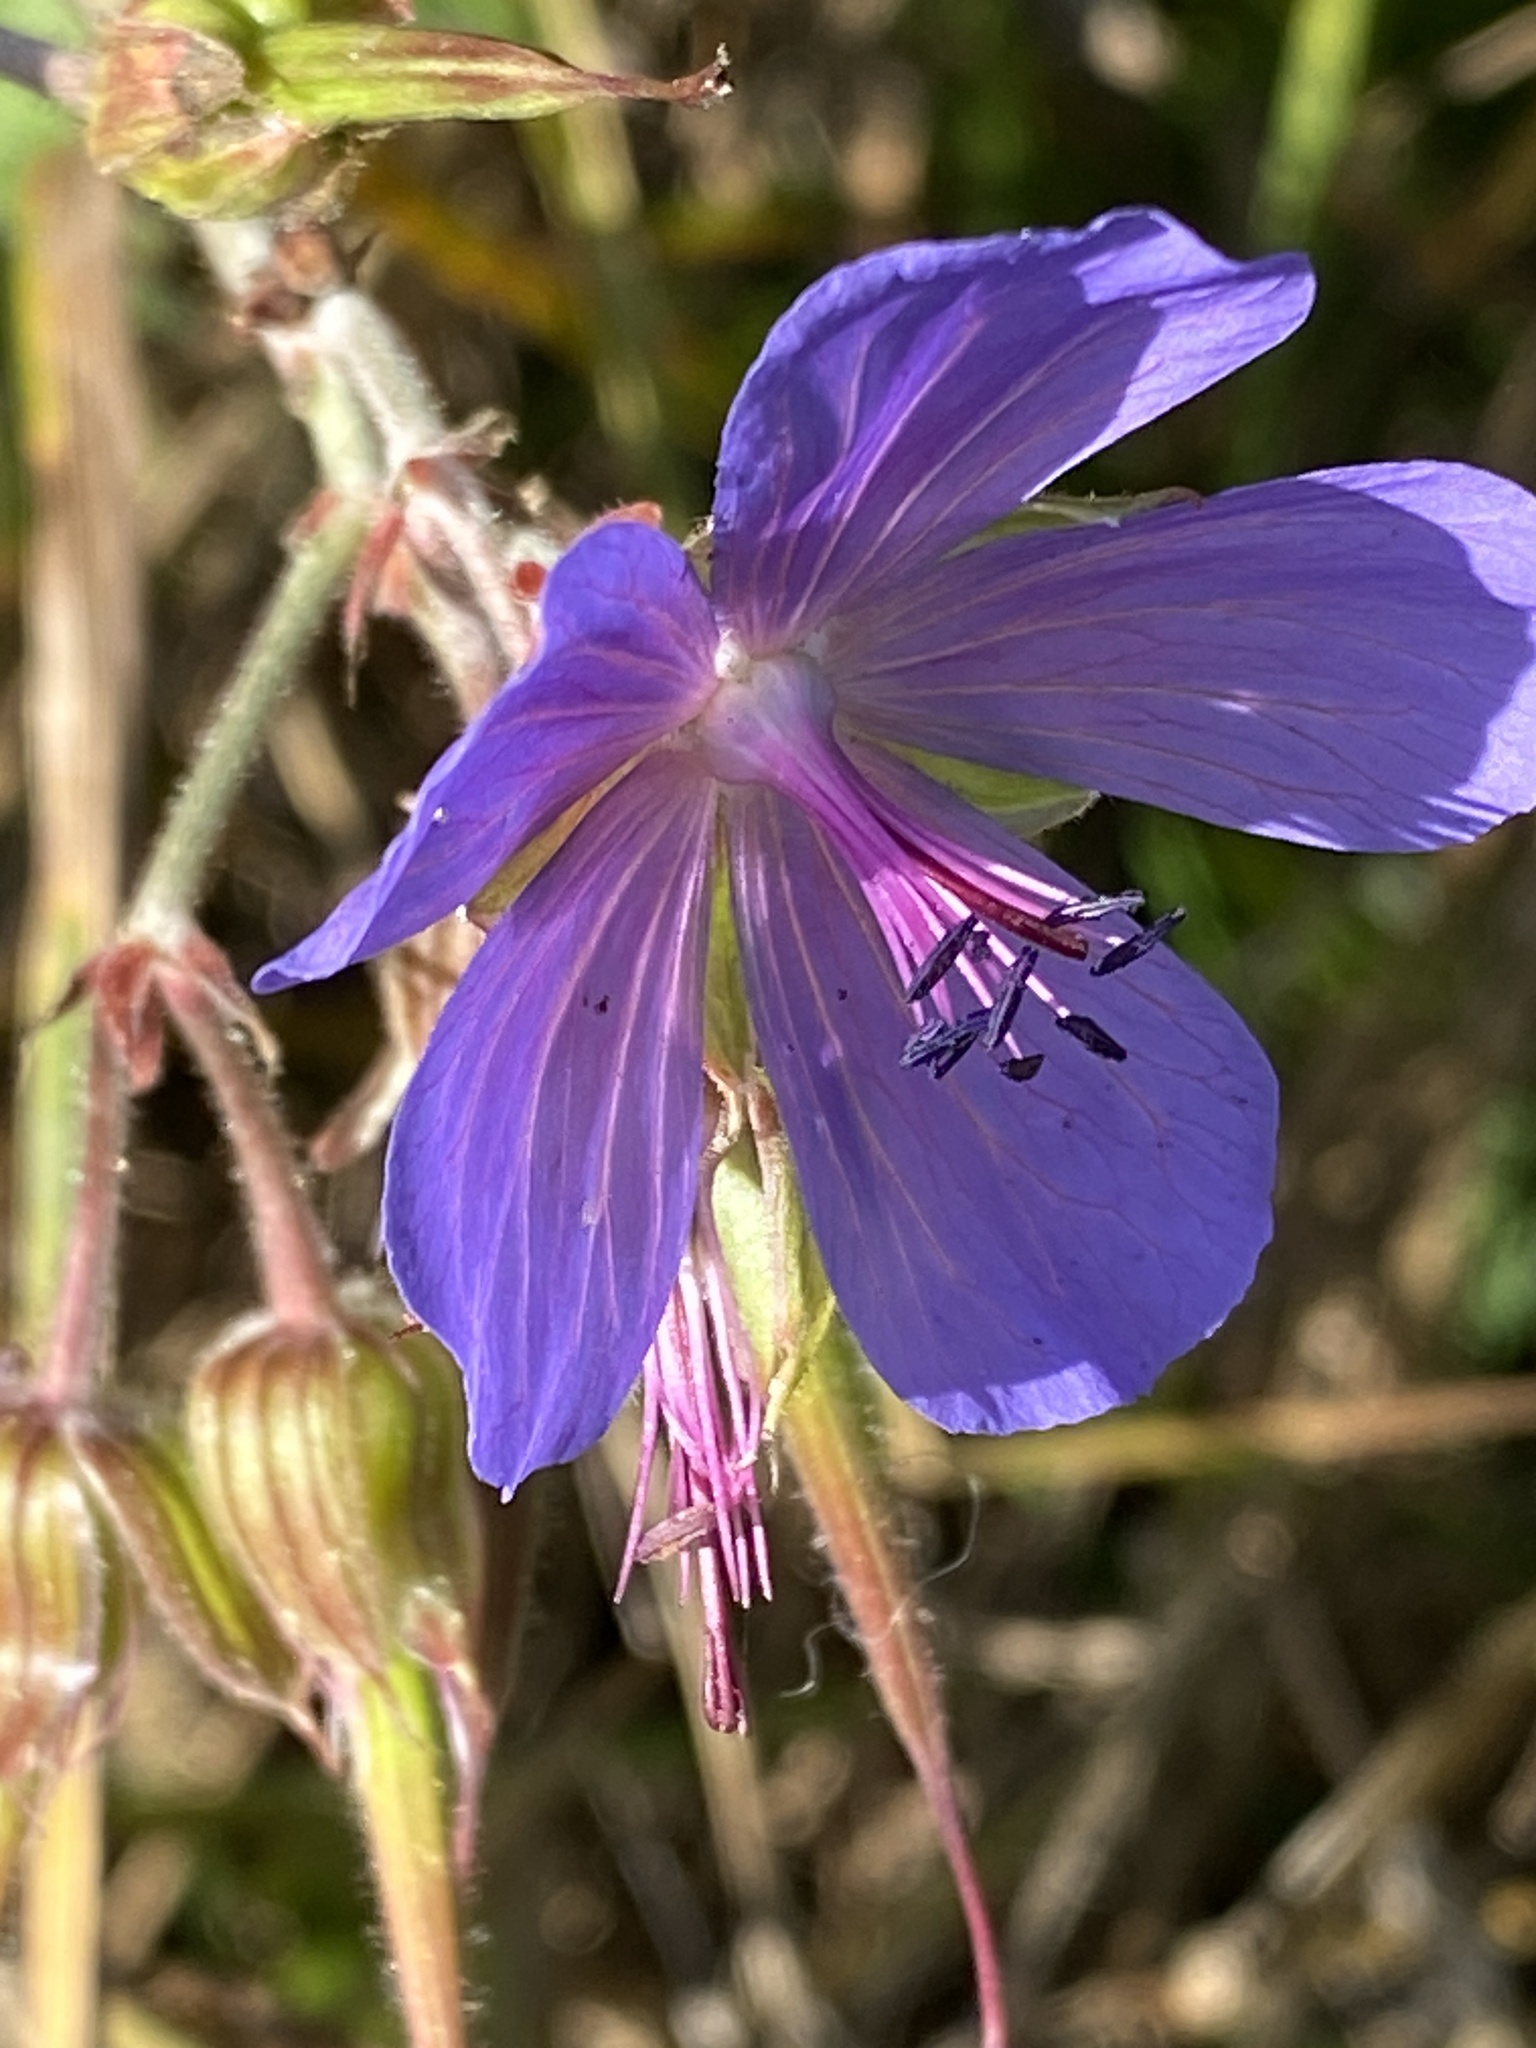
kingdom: Plantae
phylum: Tracheophyta
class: Magnoliopsida
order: Geraniales
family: Geraniaceae
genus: Geranium
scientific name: Geranium pratense
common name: Meadow crane's-bill
